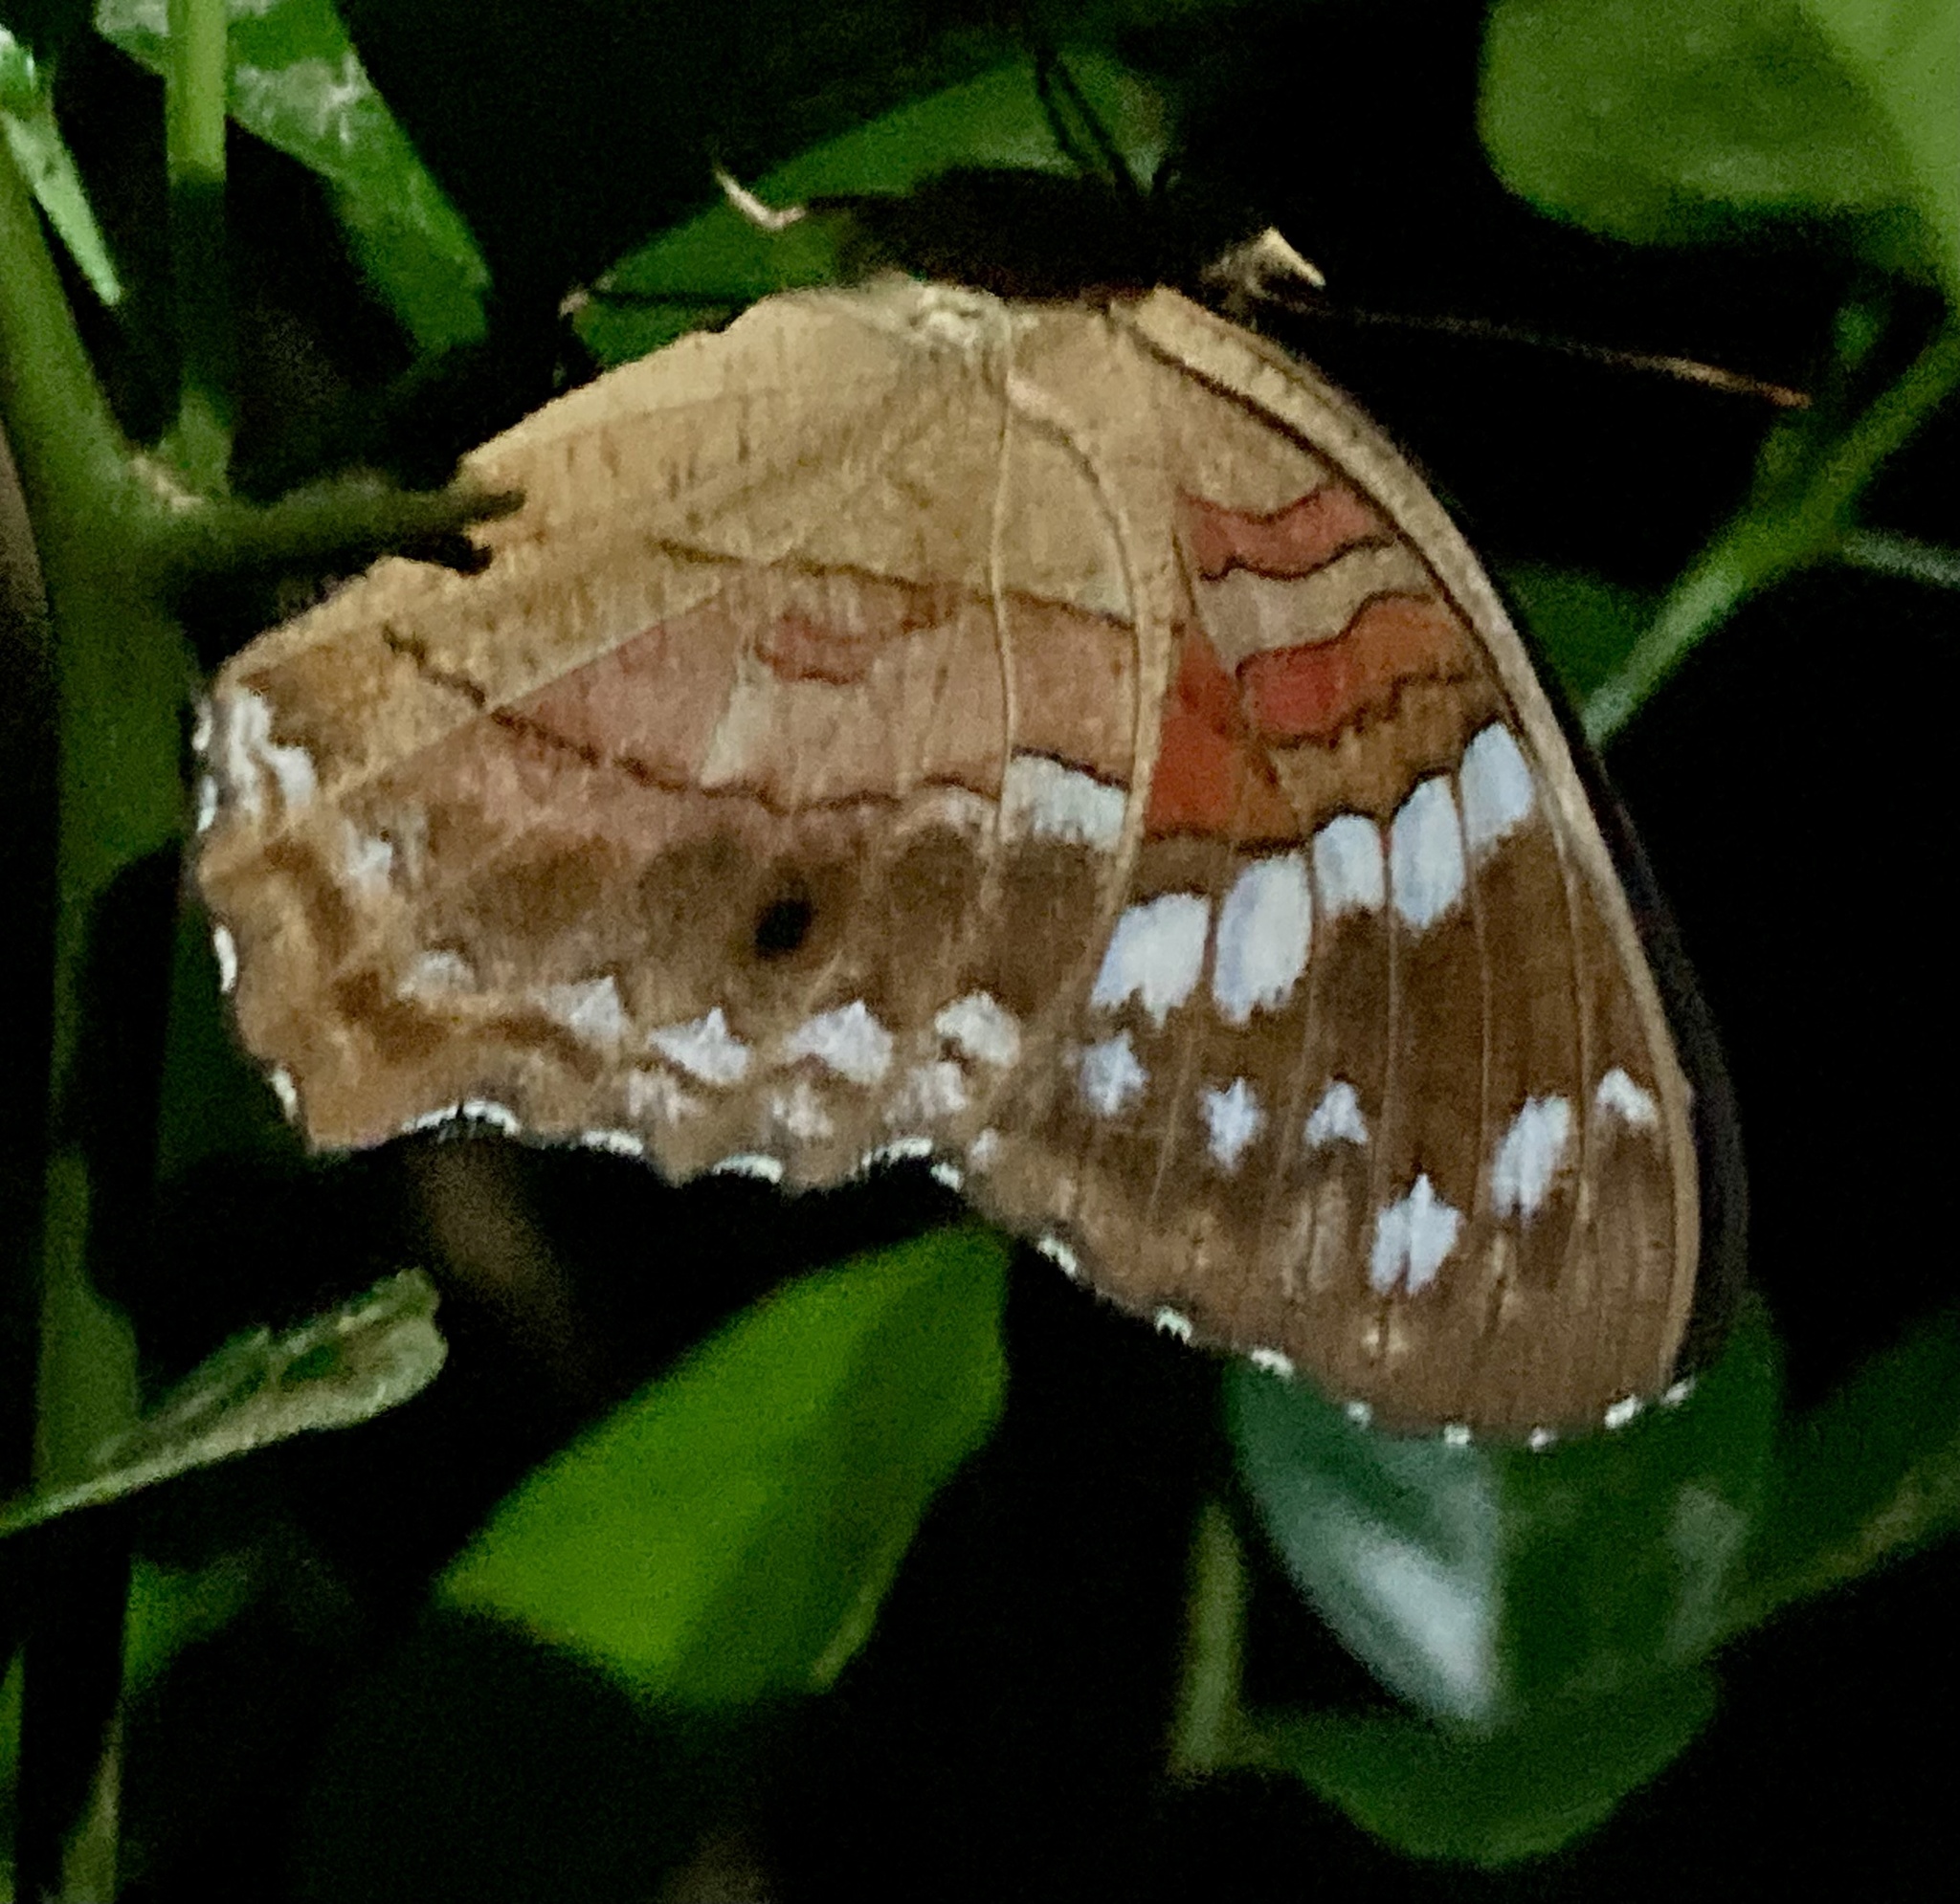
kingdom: Animalia
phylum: Arthropoda
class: Insecta
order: Lepidoptera
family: Nymphalidae
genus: Anartia
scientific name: Anartia amathea
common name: Red peacock
